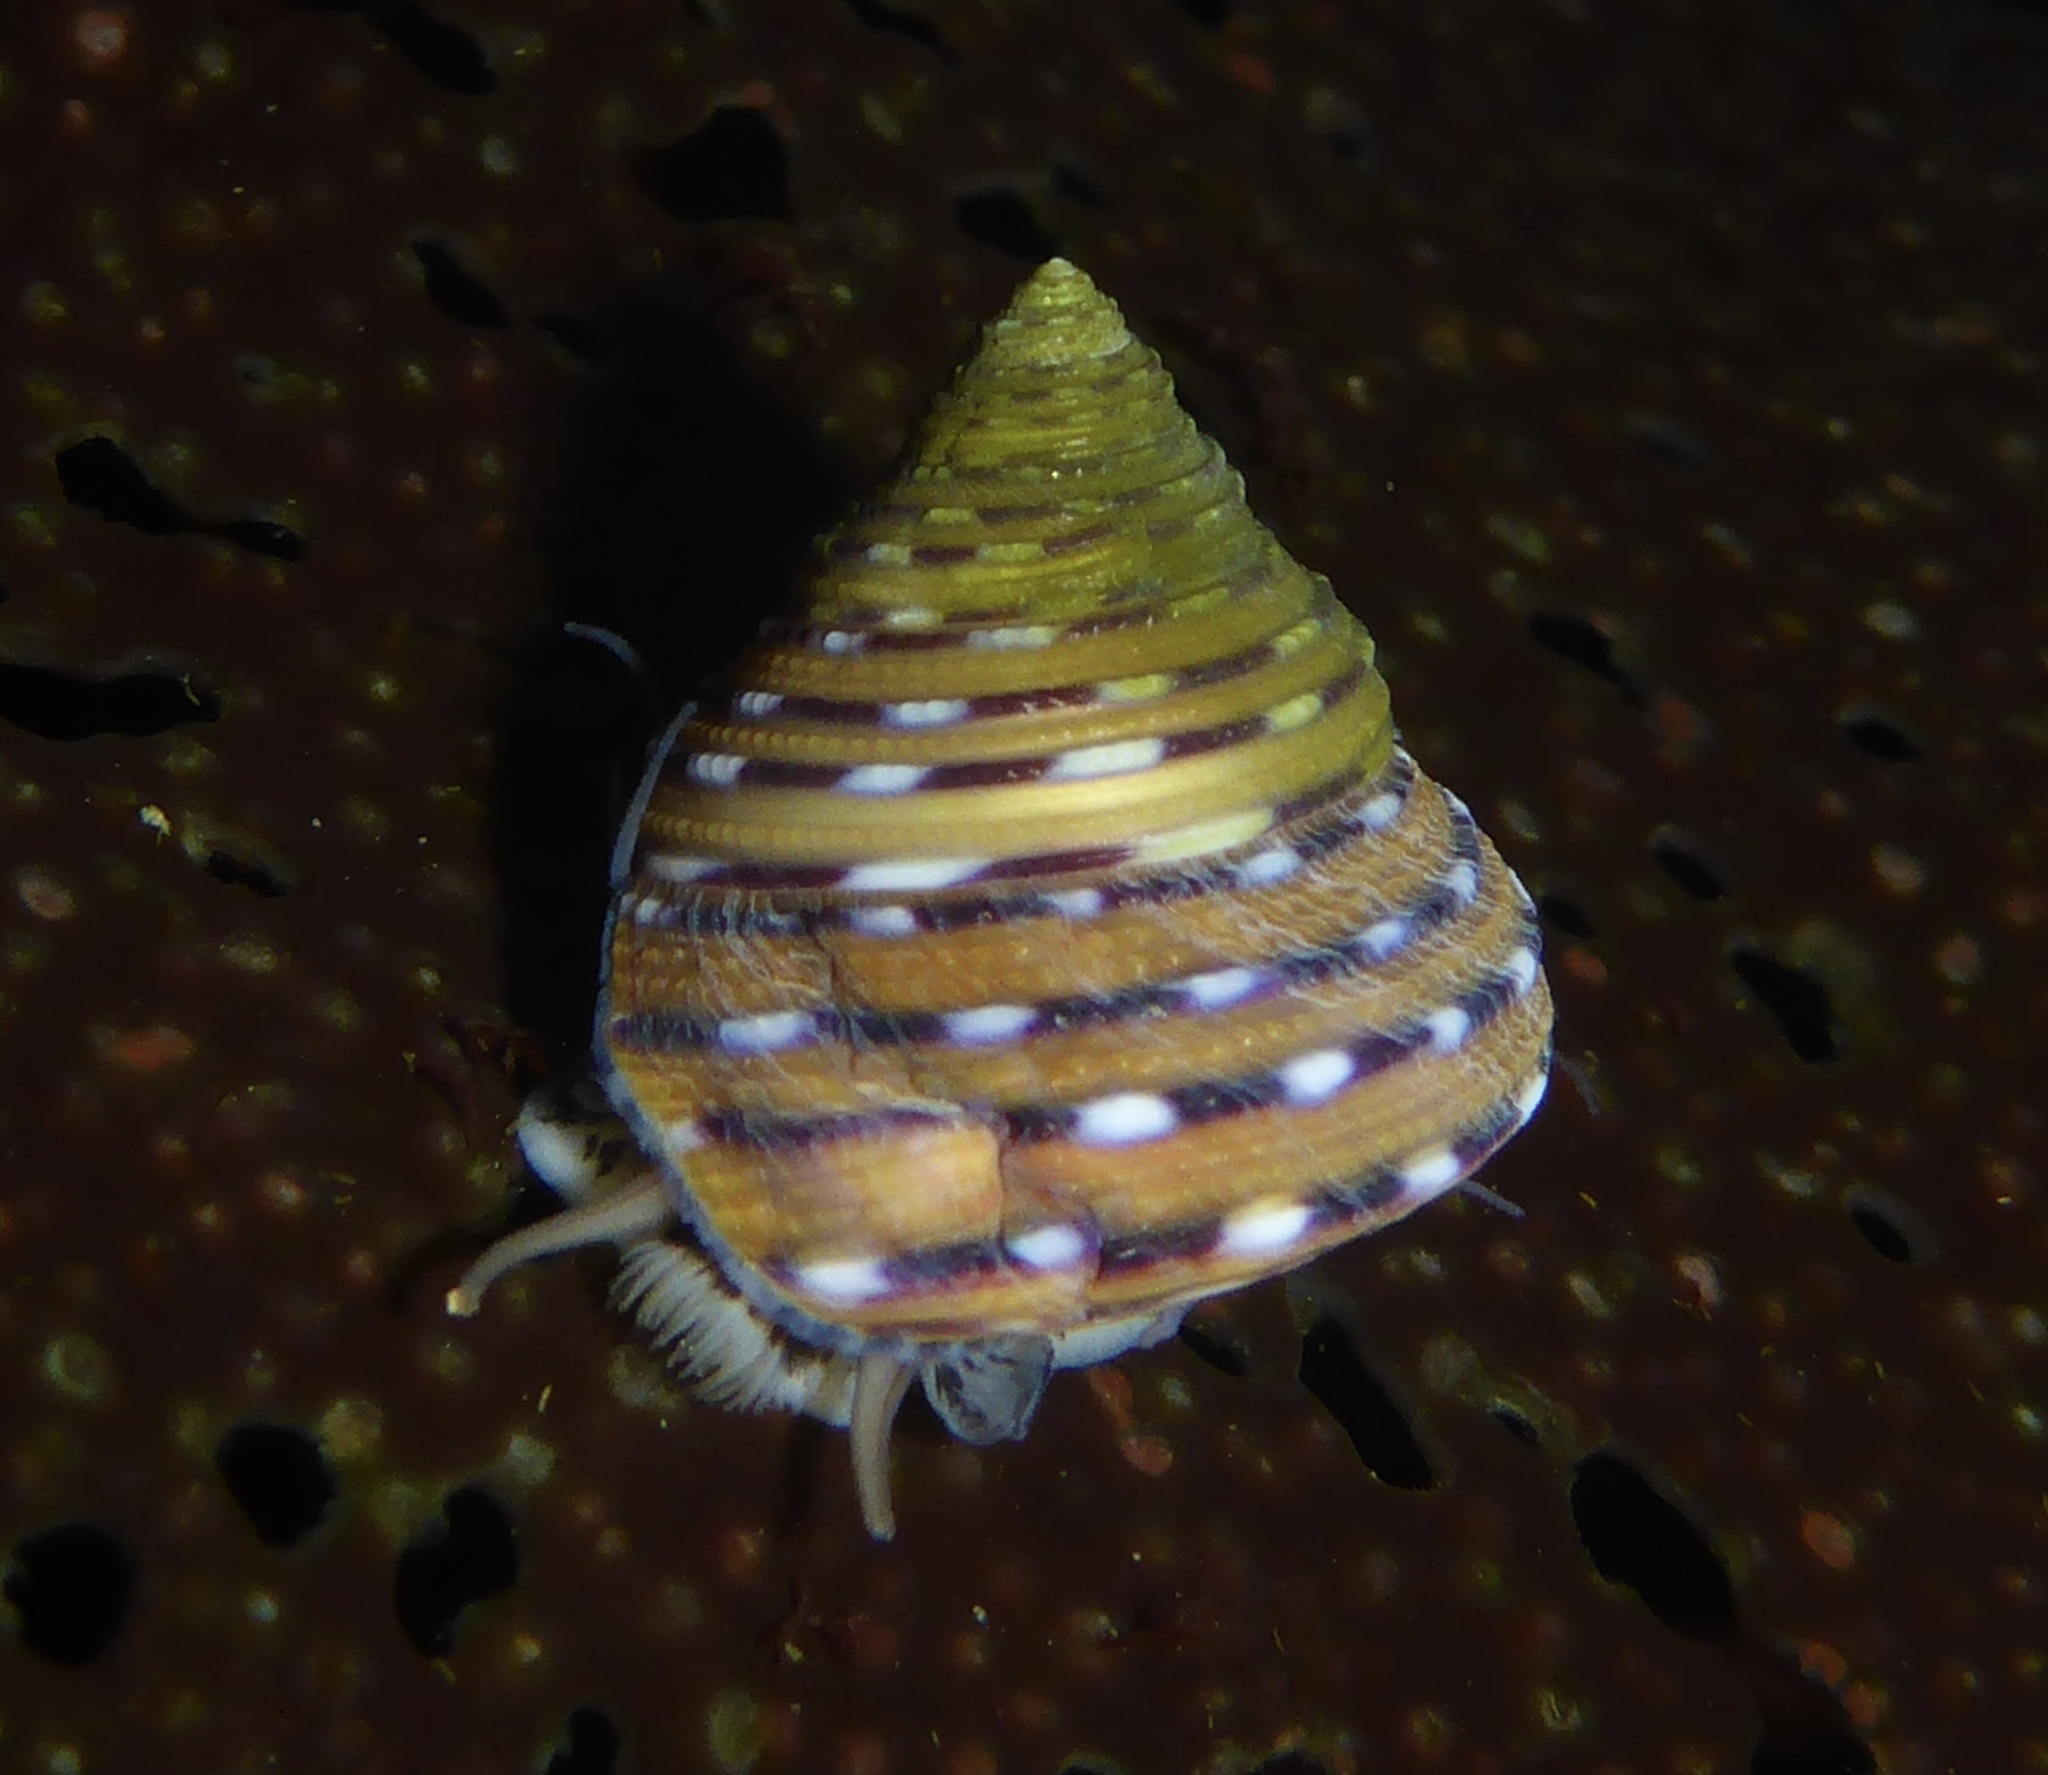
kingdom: Animalia
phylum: Mollusca
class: Gastropoda
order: Trochida
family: Calliostomatidae
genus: Calliostoma
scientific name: Calliostoma tricolor
